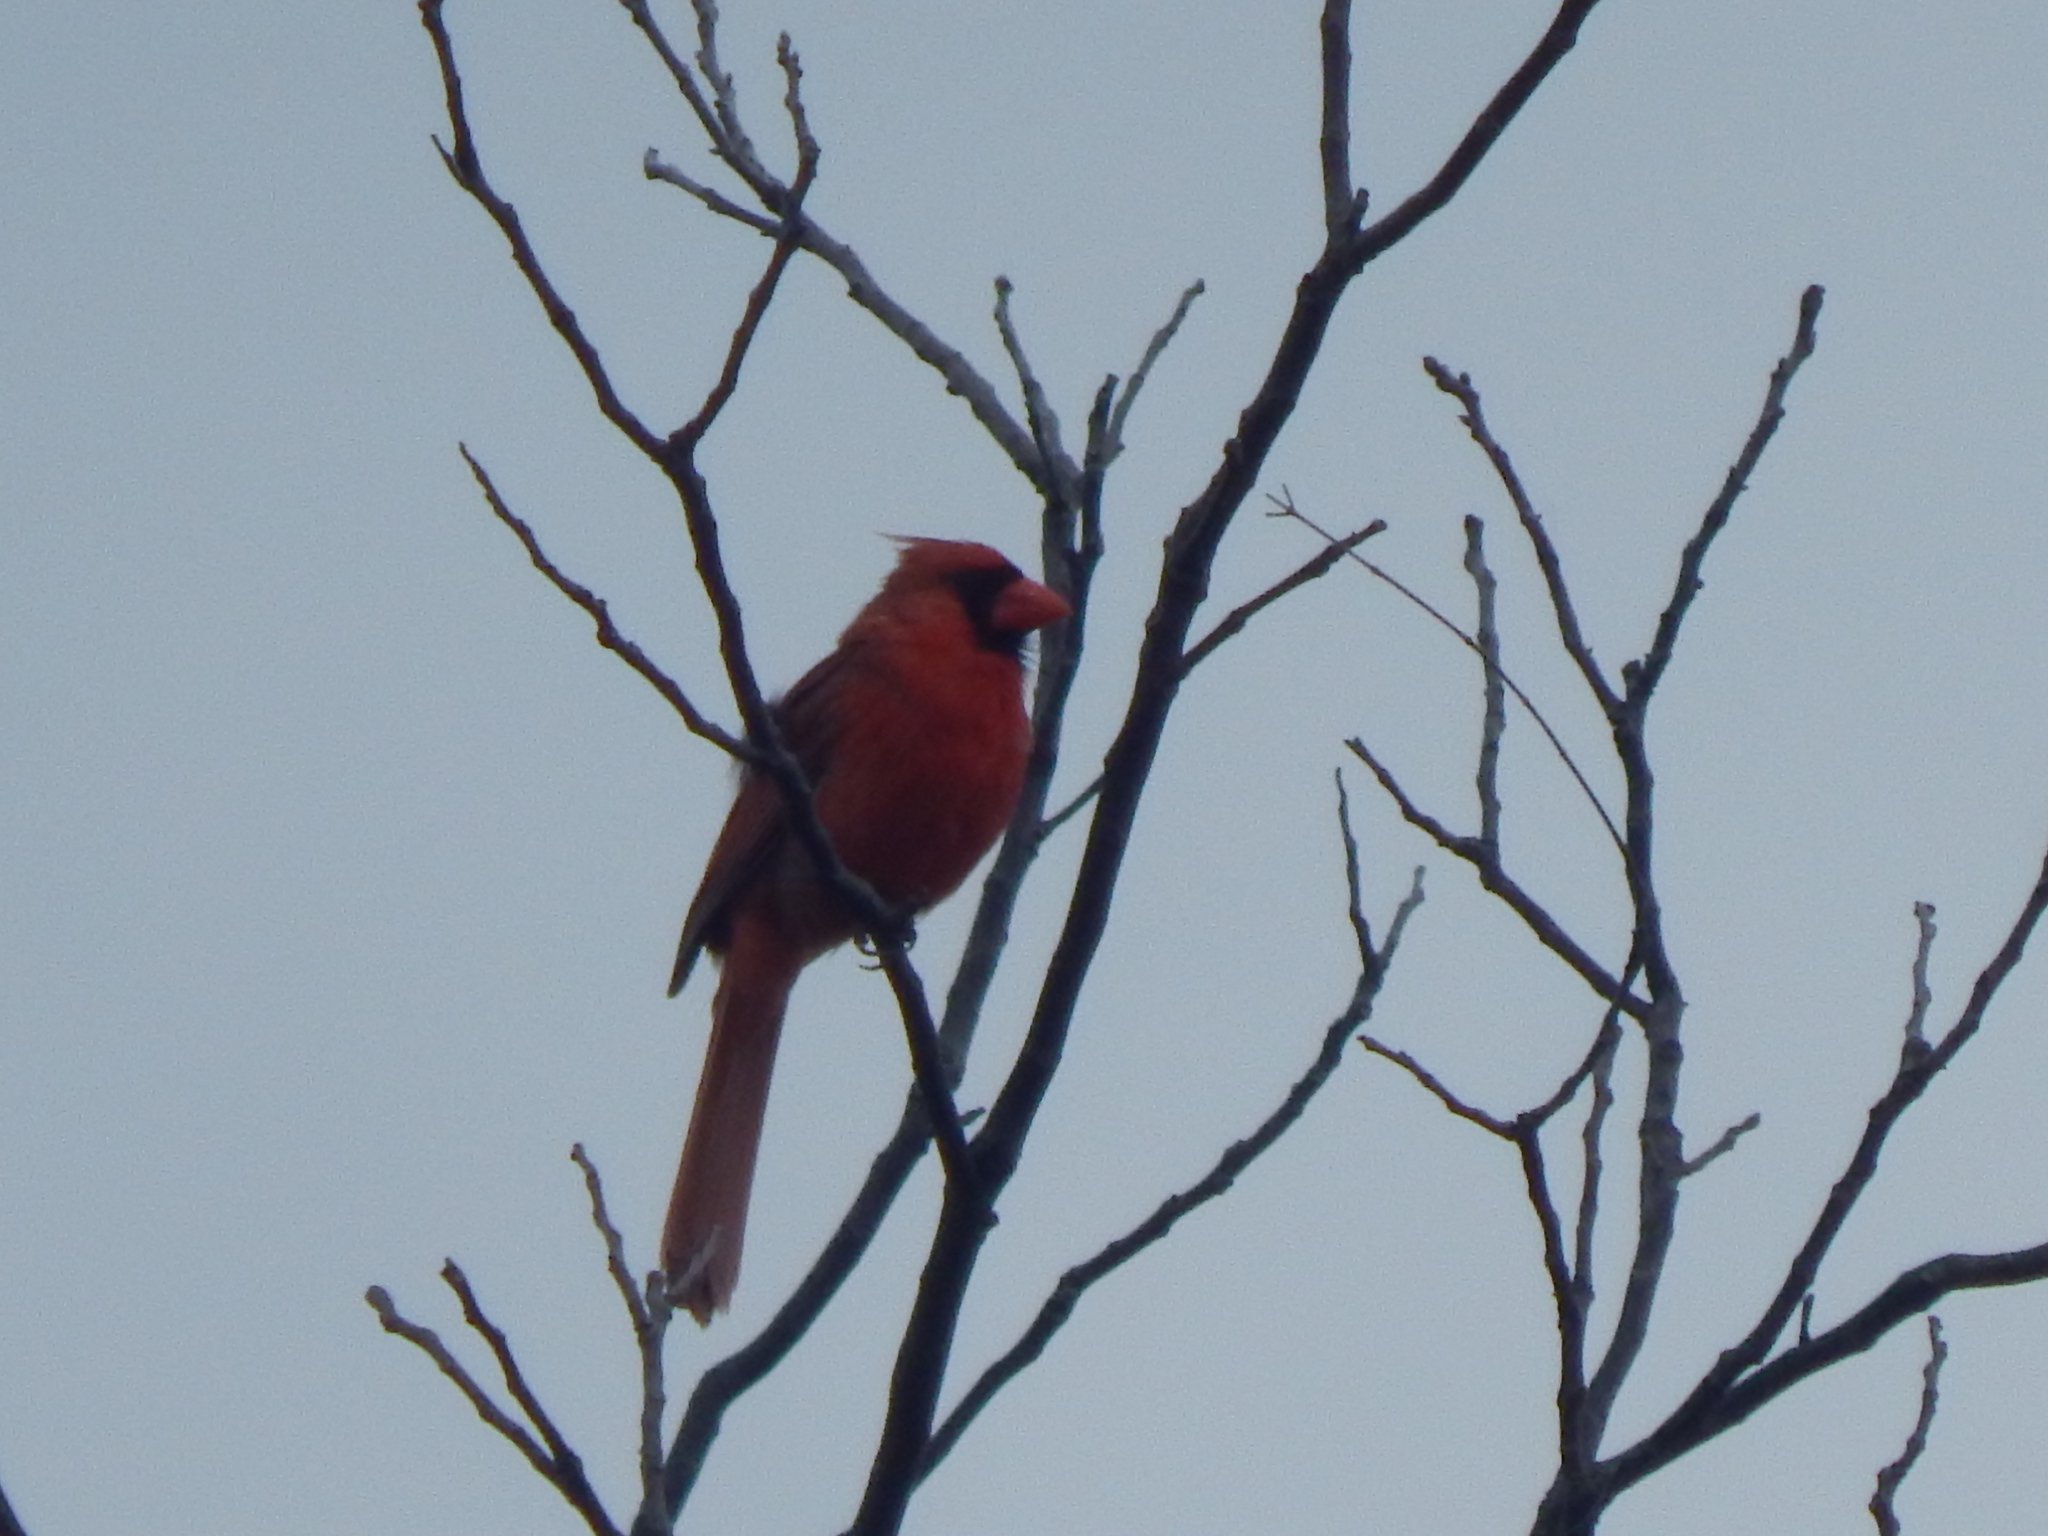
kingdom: Animalia
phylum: Chordata
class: Aves
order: Passeriformes
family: Cardinalidae
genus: Cardinalis
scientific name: Cardinalis cardinalis
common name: Northern cardinal
